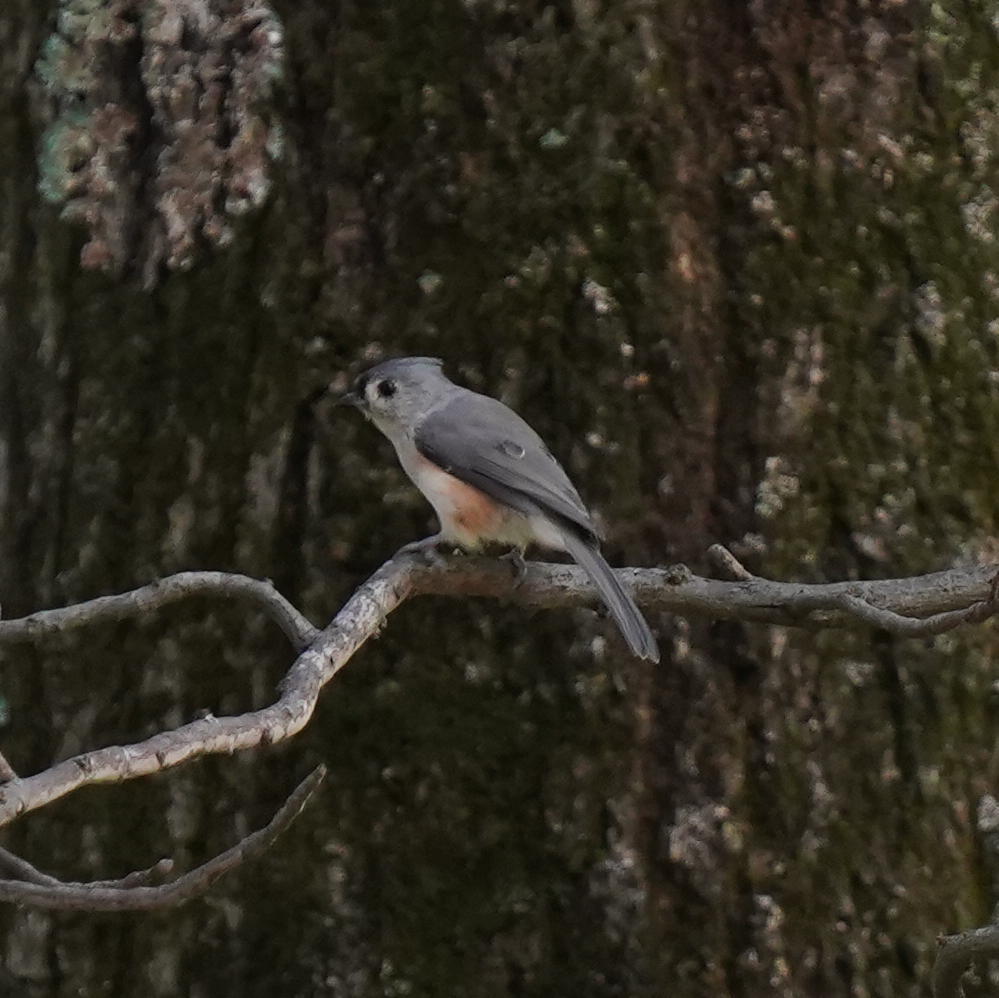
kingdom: Animalia
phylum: Chordata
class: Aves
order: Passeriformes
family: Paridae
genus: Baeolophus
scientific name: Baeolophus bicolor
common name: Tufted titmouse
